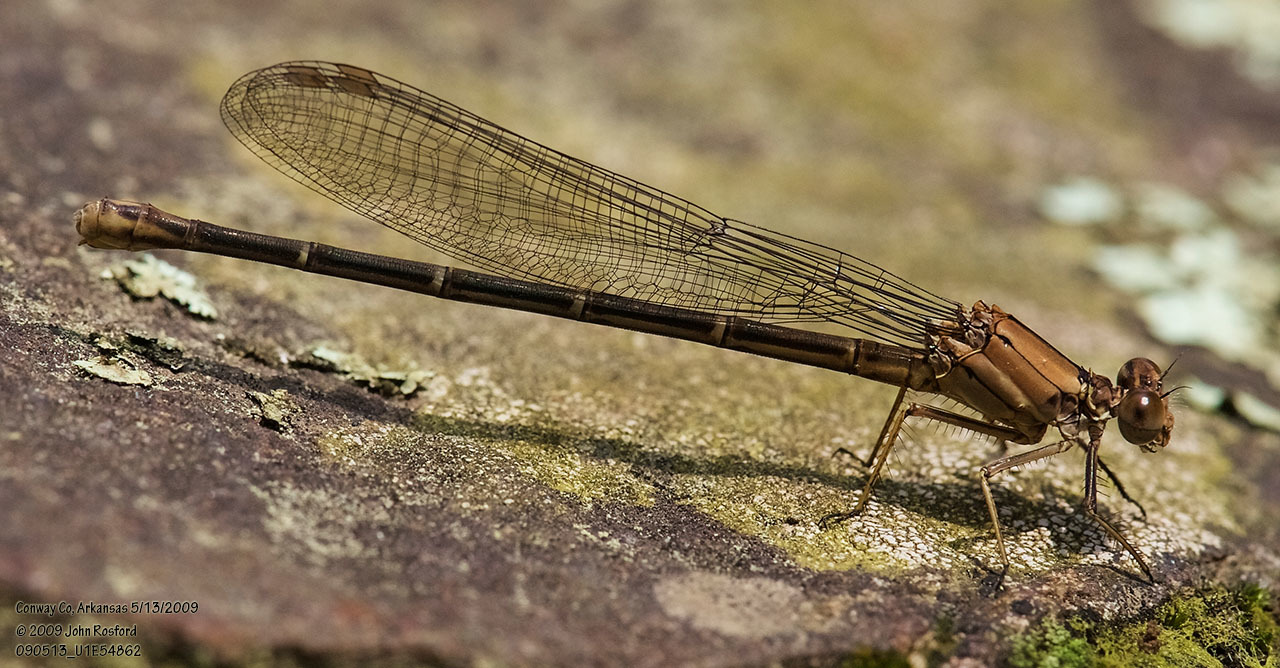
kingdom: Animalia
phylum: Arthropoda
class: Insecta
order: Odonata
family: Coenagrionidae
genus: Argia
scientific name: Argia moesta
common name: Powdered dancer
